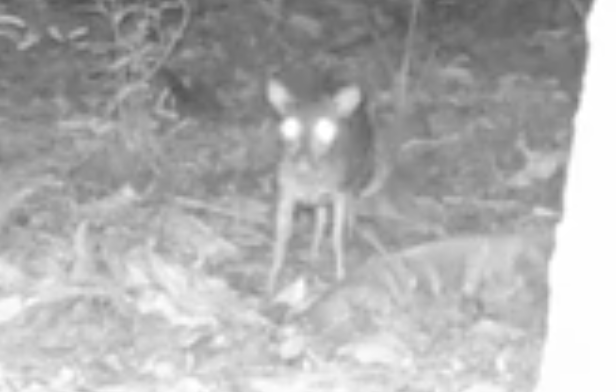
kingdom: Animalia
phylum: Chordata
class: Mammalia
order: Artiodactyla
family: Bovidae
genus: Philantomba
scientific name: Philantomba monticola
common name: Blue duiker
